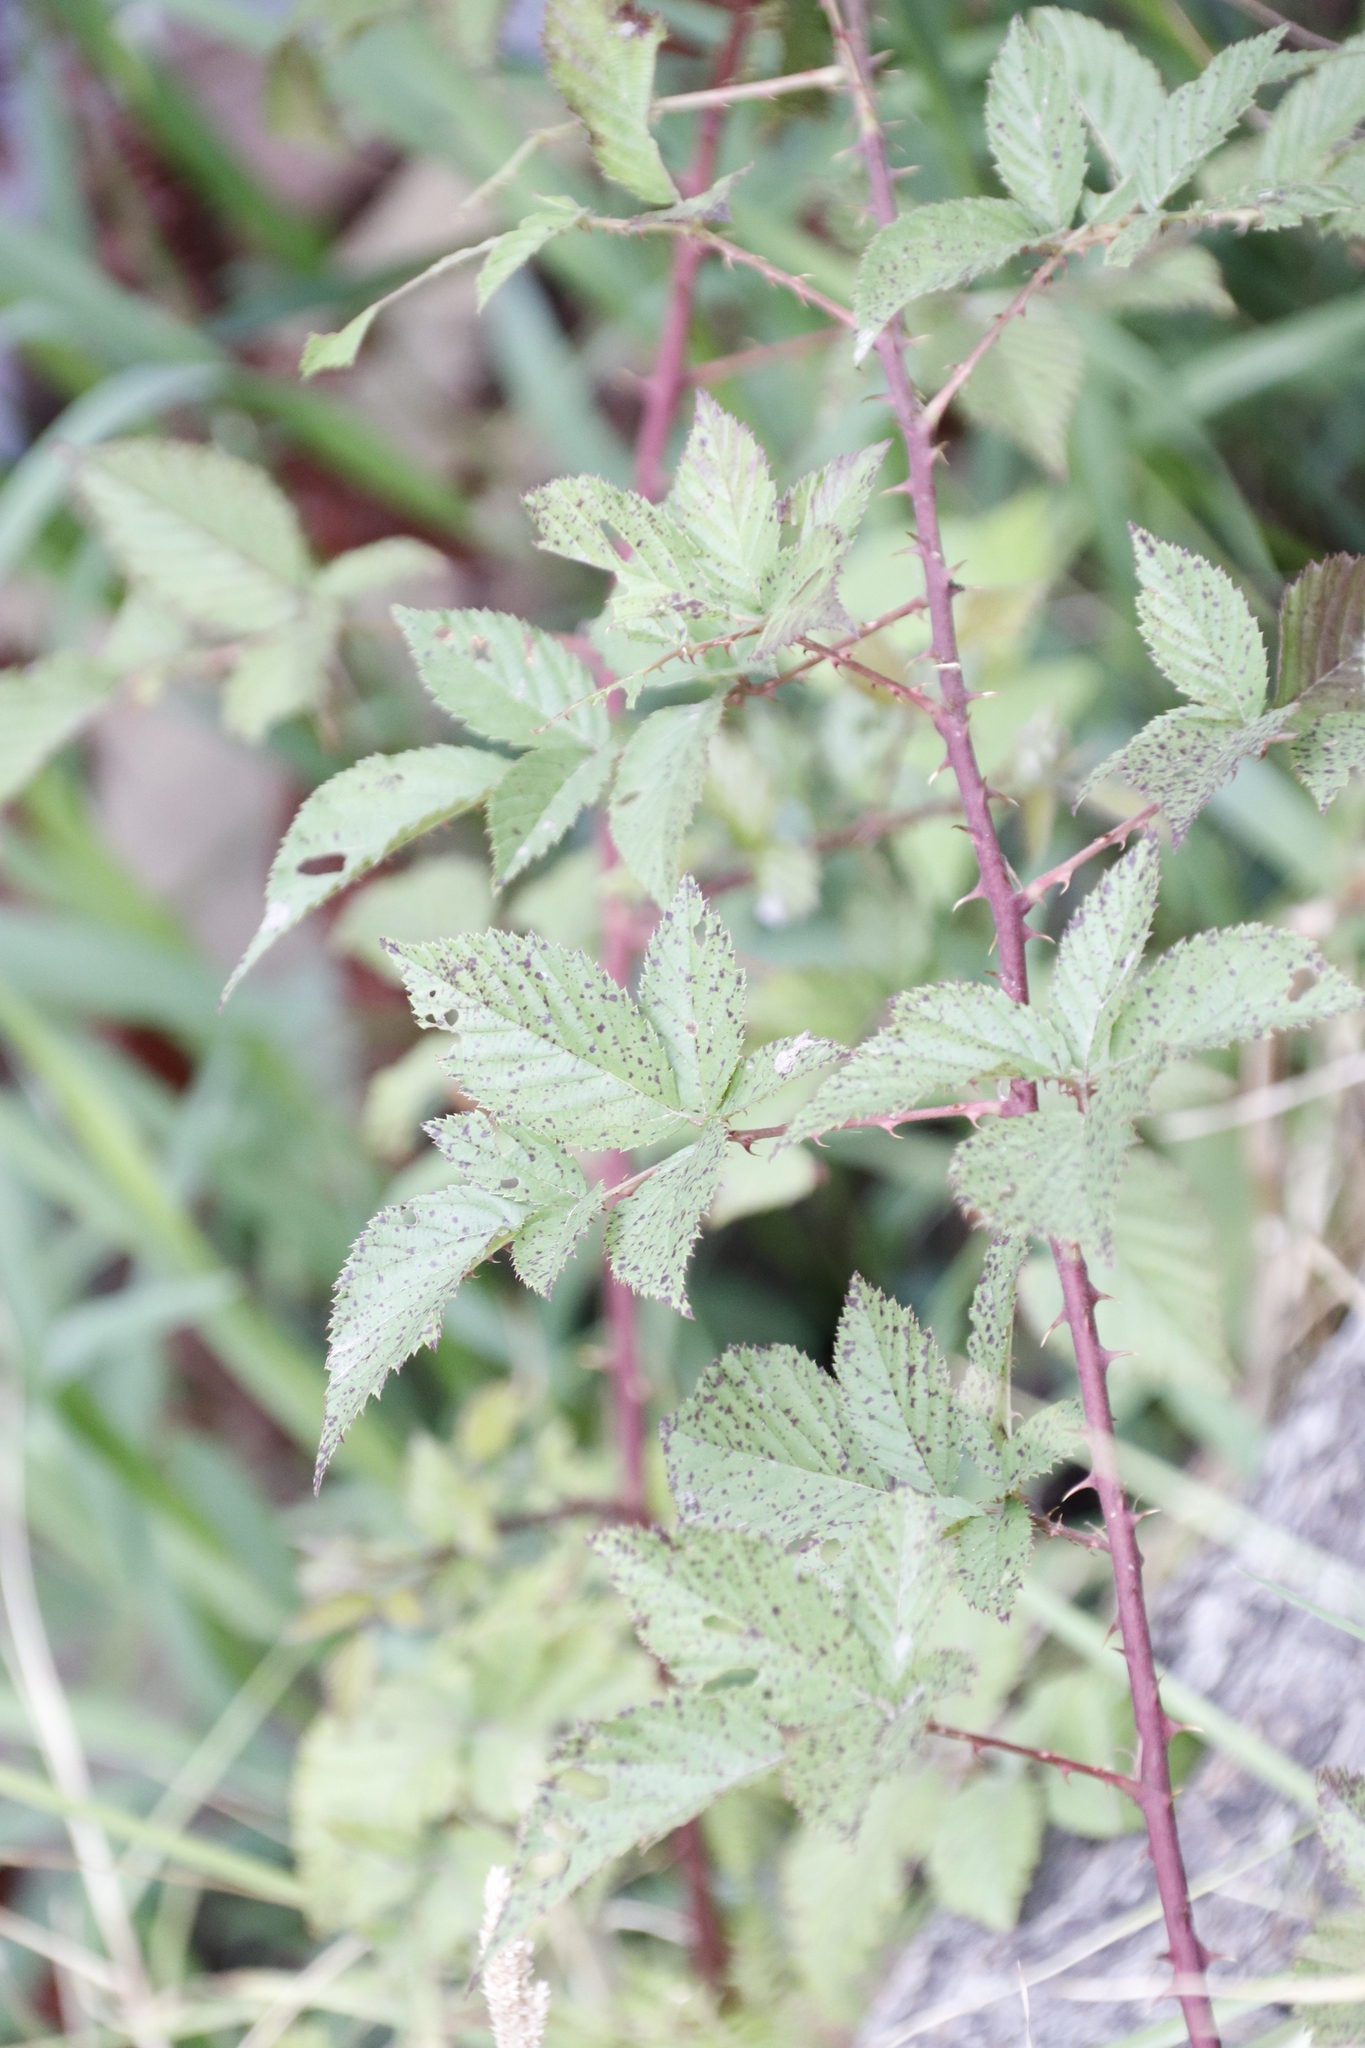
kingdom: Plantae
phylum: Tracheophyta
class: Magnoliopsida
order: Rosales
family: Rosaceae
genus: Rubus
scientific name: Rubus fultus
